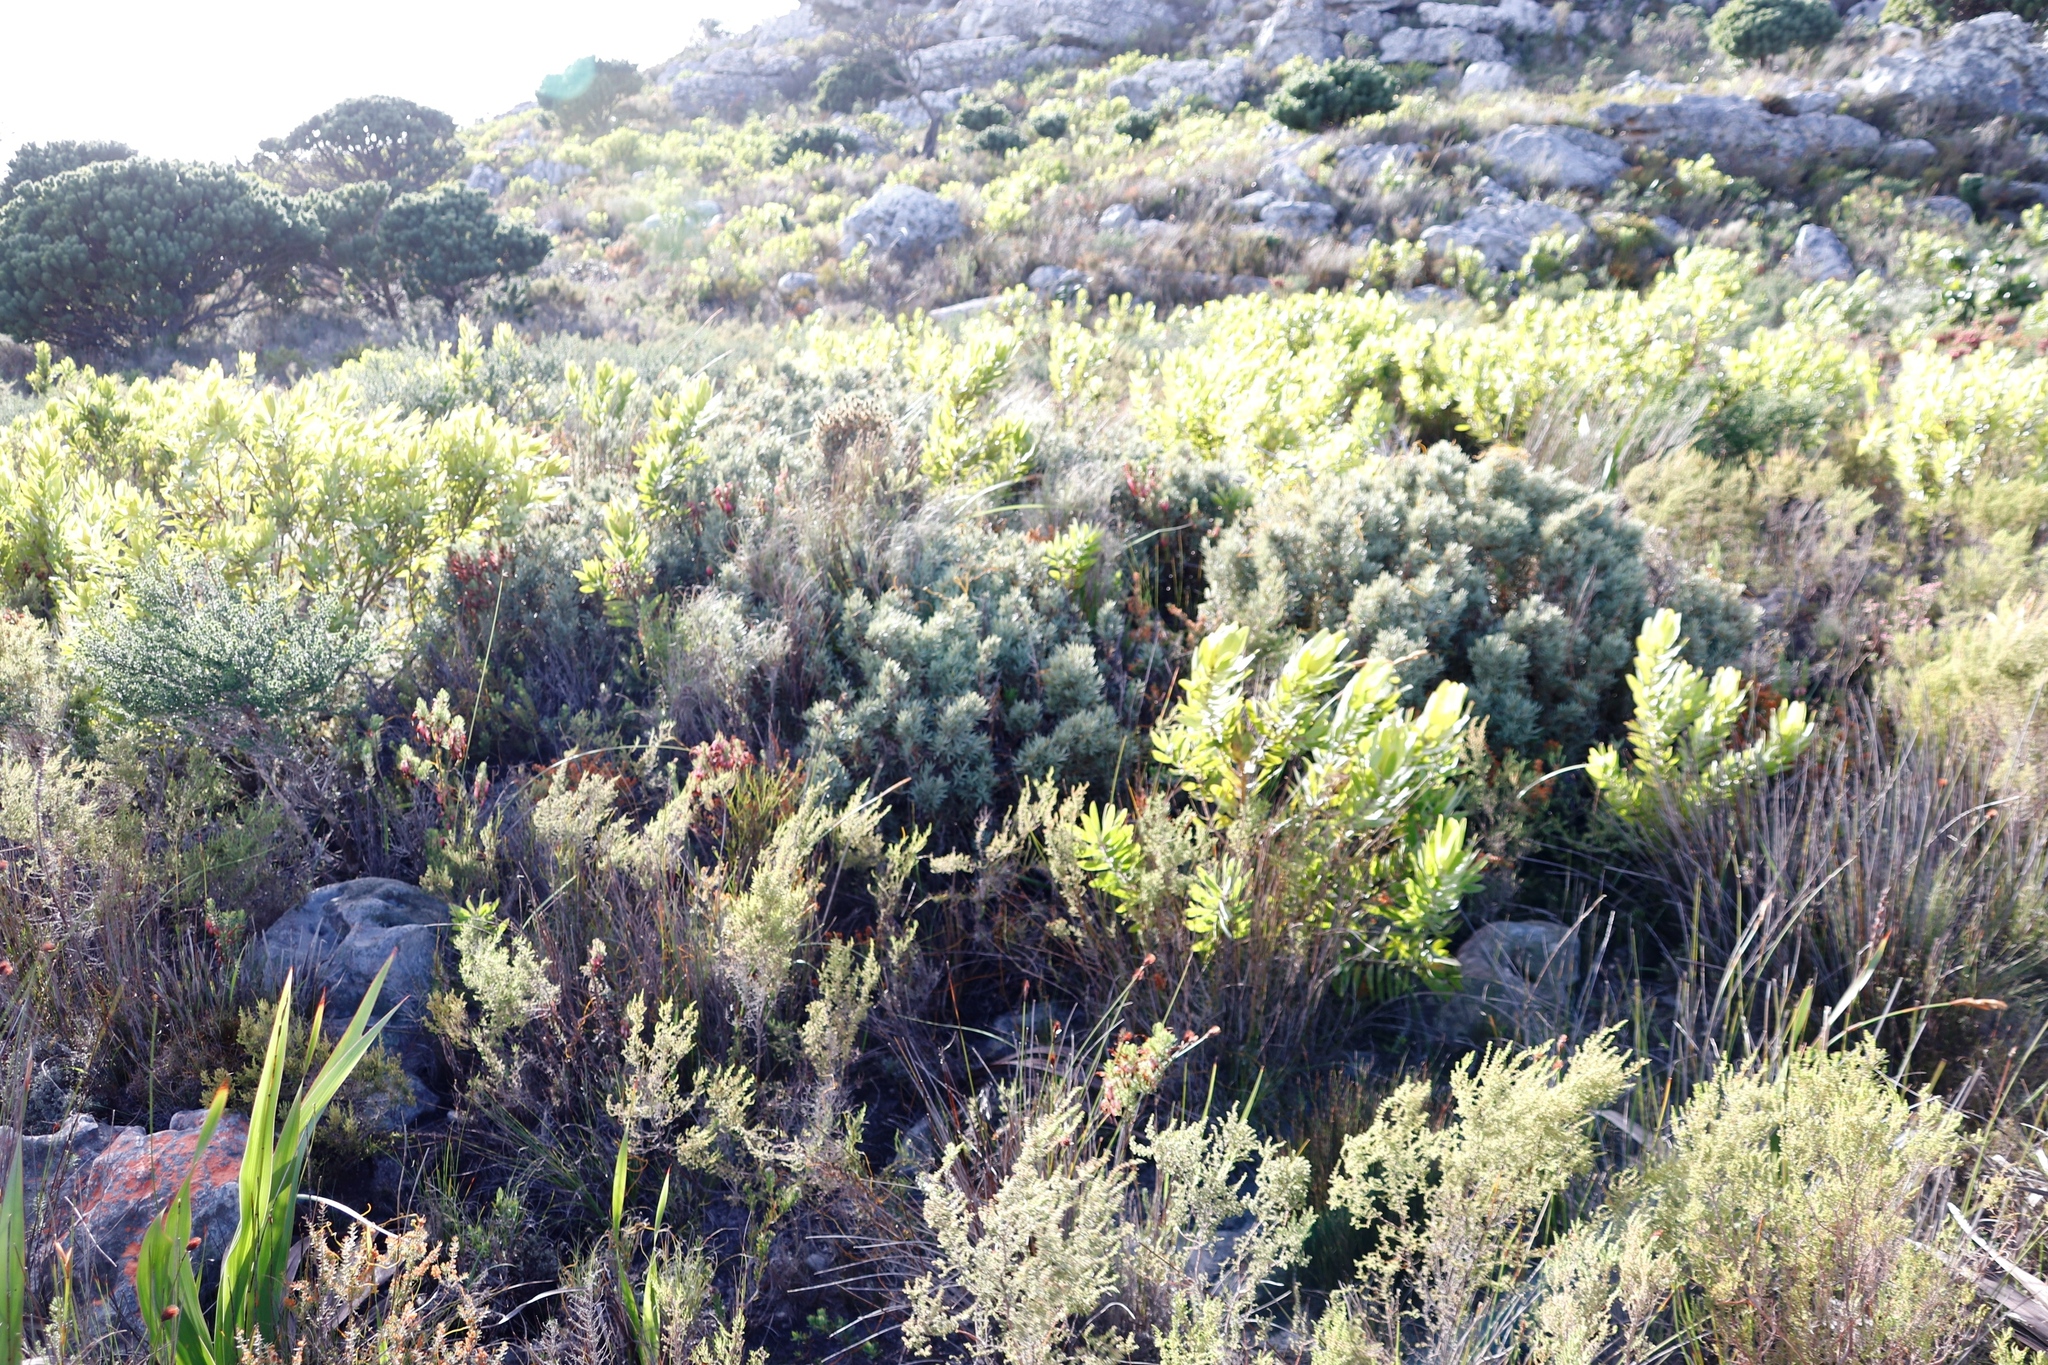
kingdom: Plantae
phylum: Tracheophyta
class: Magnoliopsida
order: Cornales
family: Grubbiaceae
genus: Grubbia
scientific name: Grubbia tomentosa
